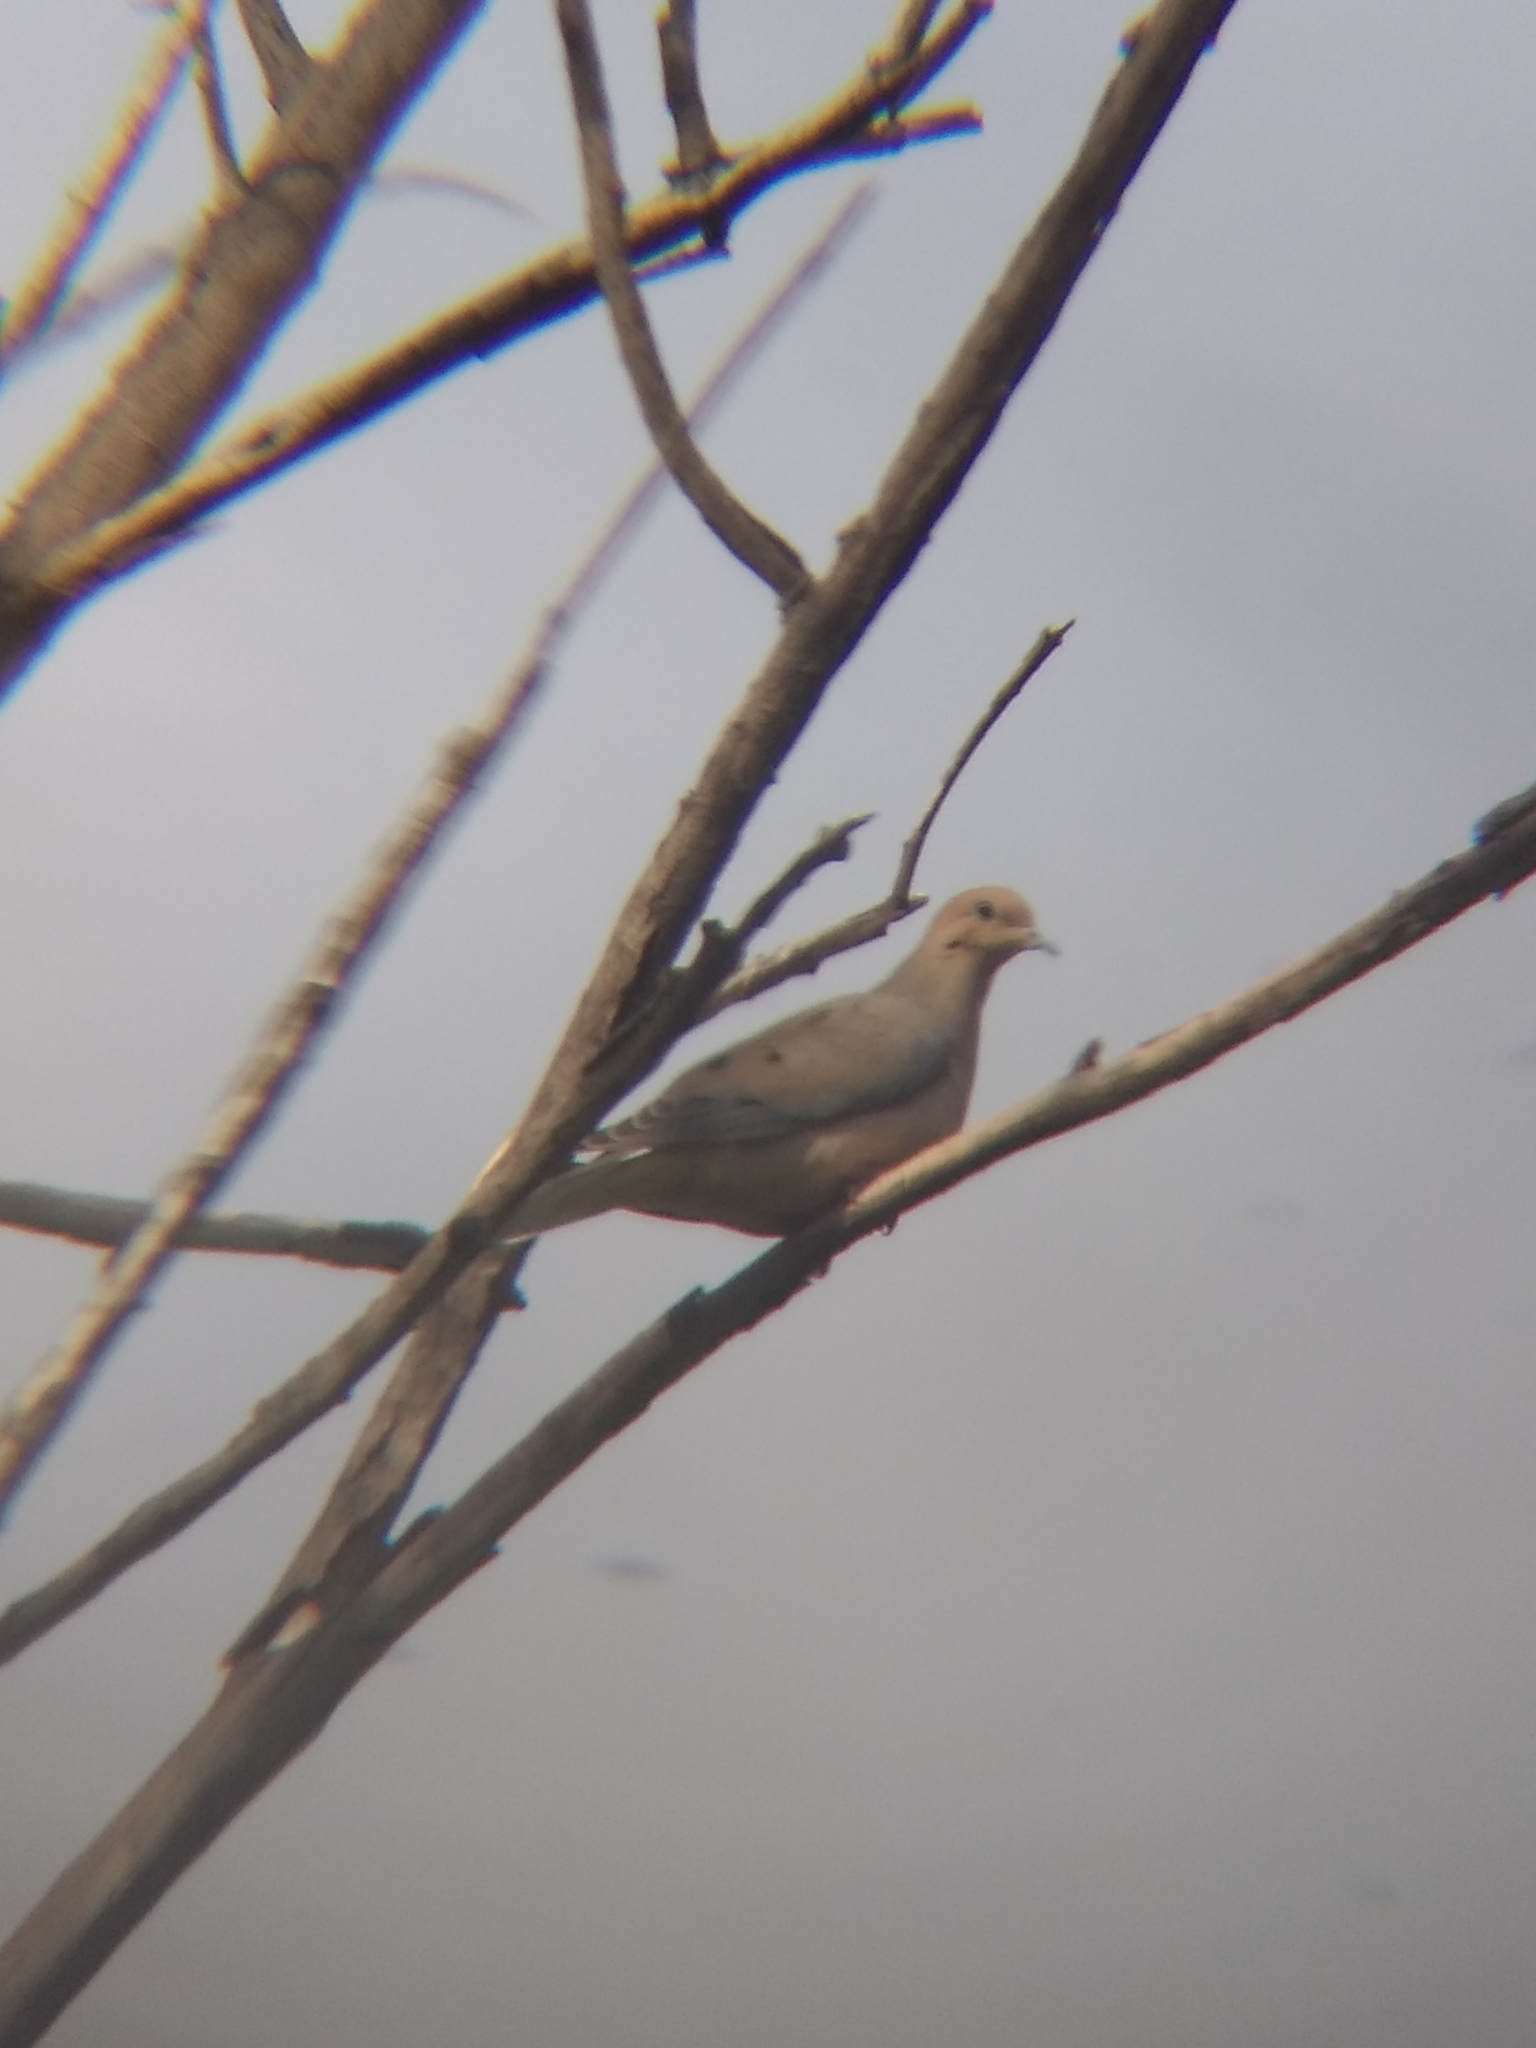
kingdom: Animalia
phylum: Chordata
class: Aves
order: Columbiformes
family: Columbidae
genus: Zenaida
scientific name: Zenaida macroura
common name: Mourning dove
